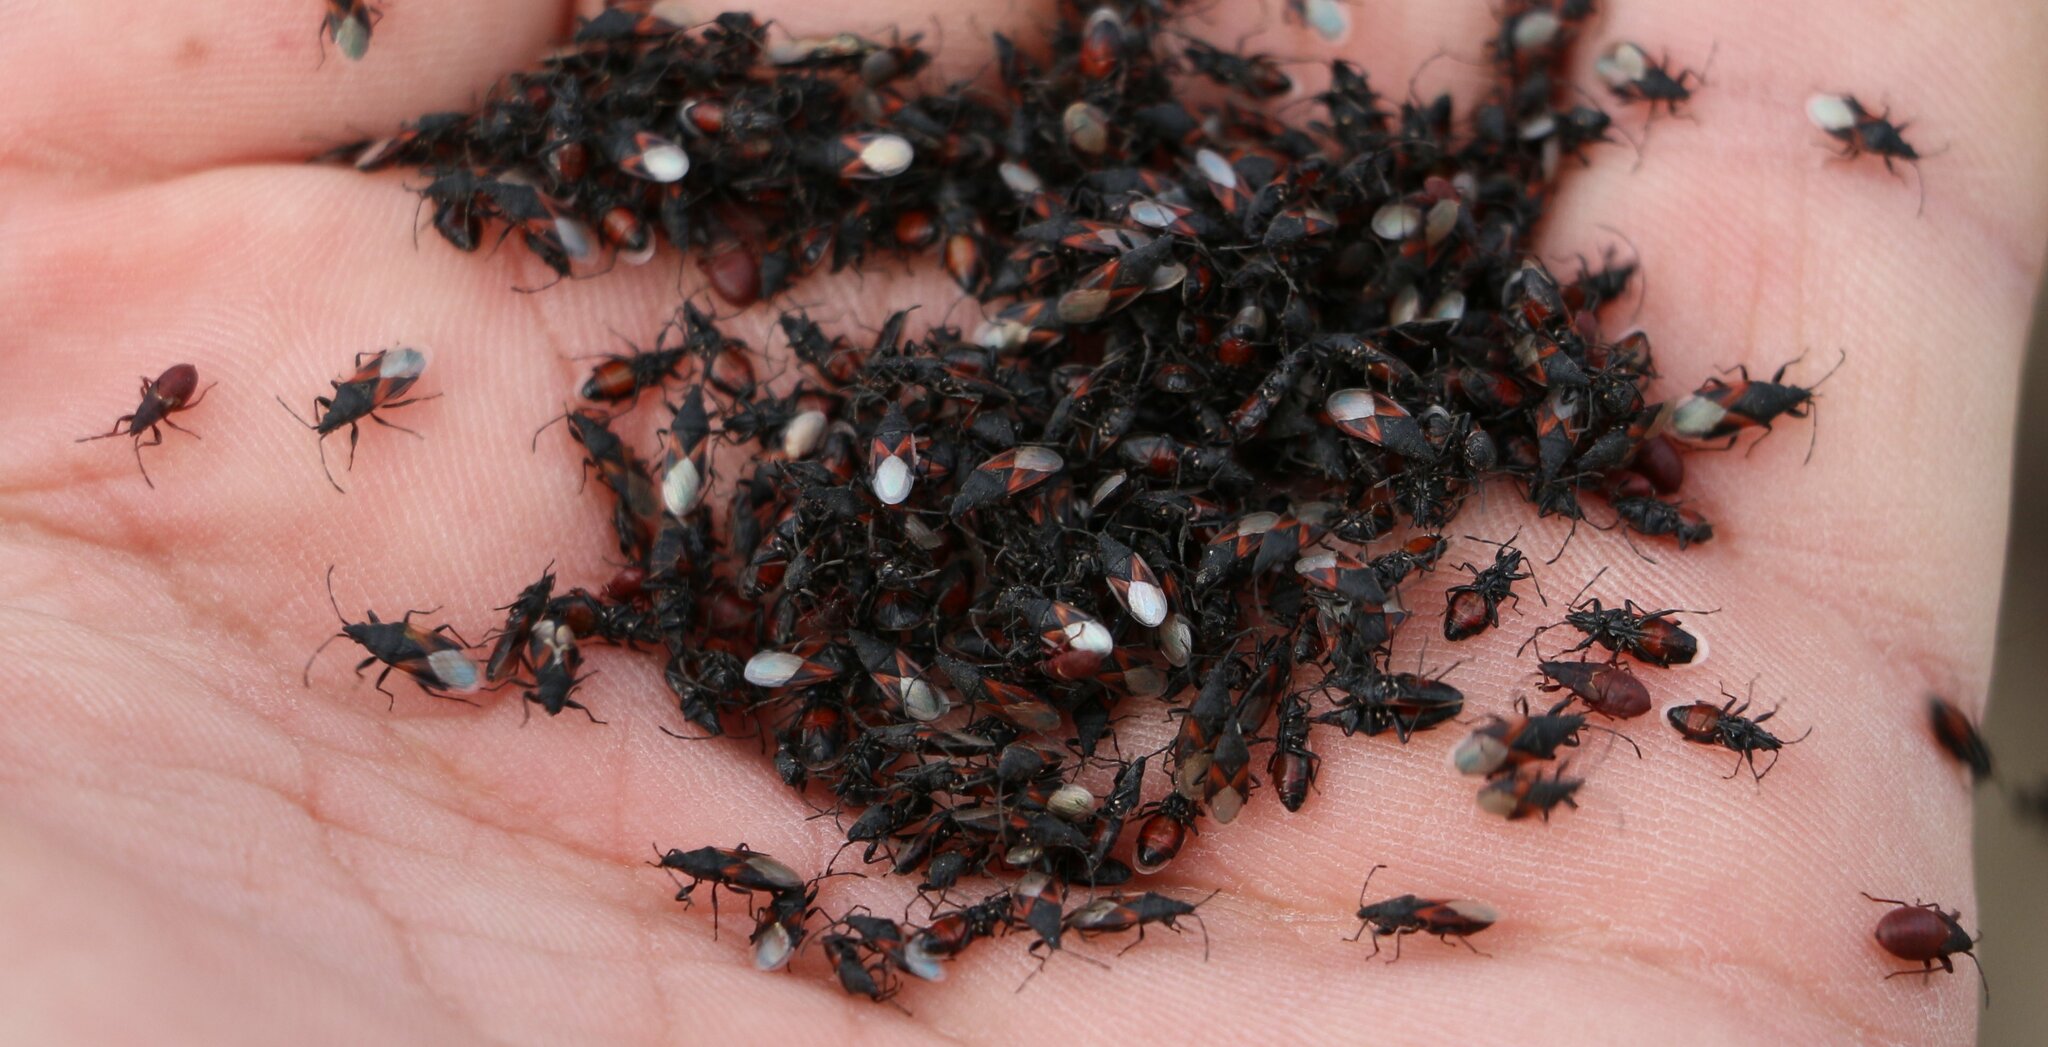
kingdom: Animalia
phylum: Arthropoda
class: Insecta
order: Hemiptera
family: Oxycarenidae
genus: Oxycarenus
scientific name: Oxycarenus lavaterae
